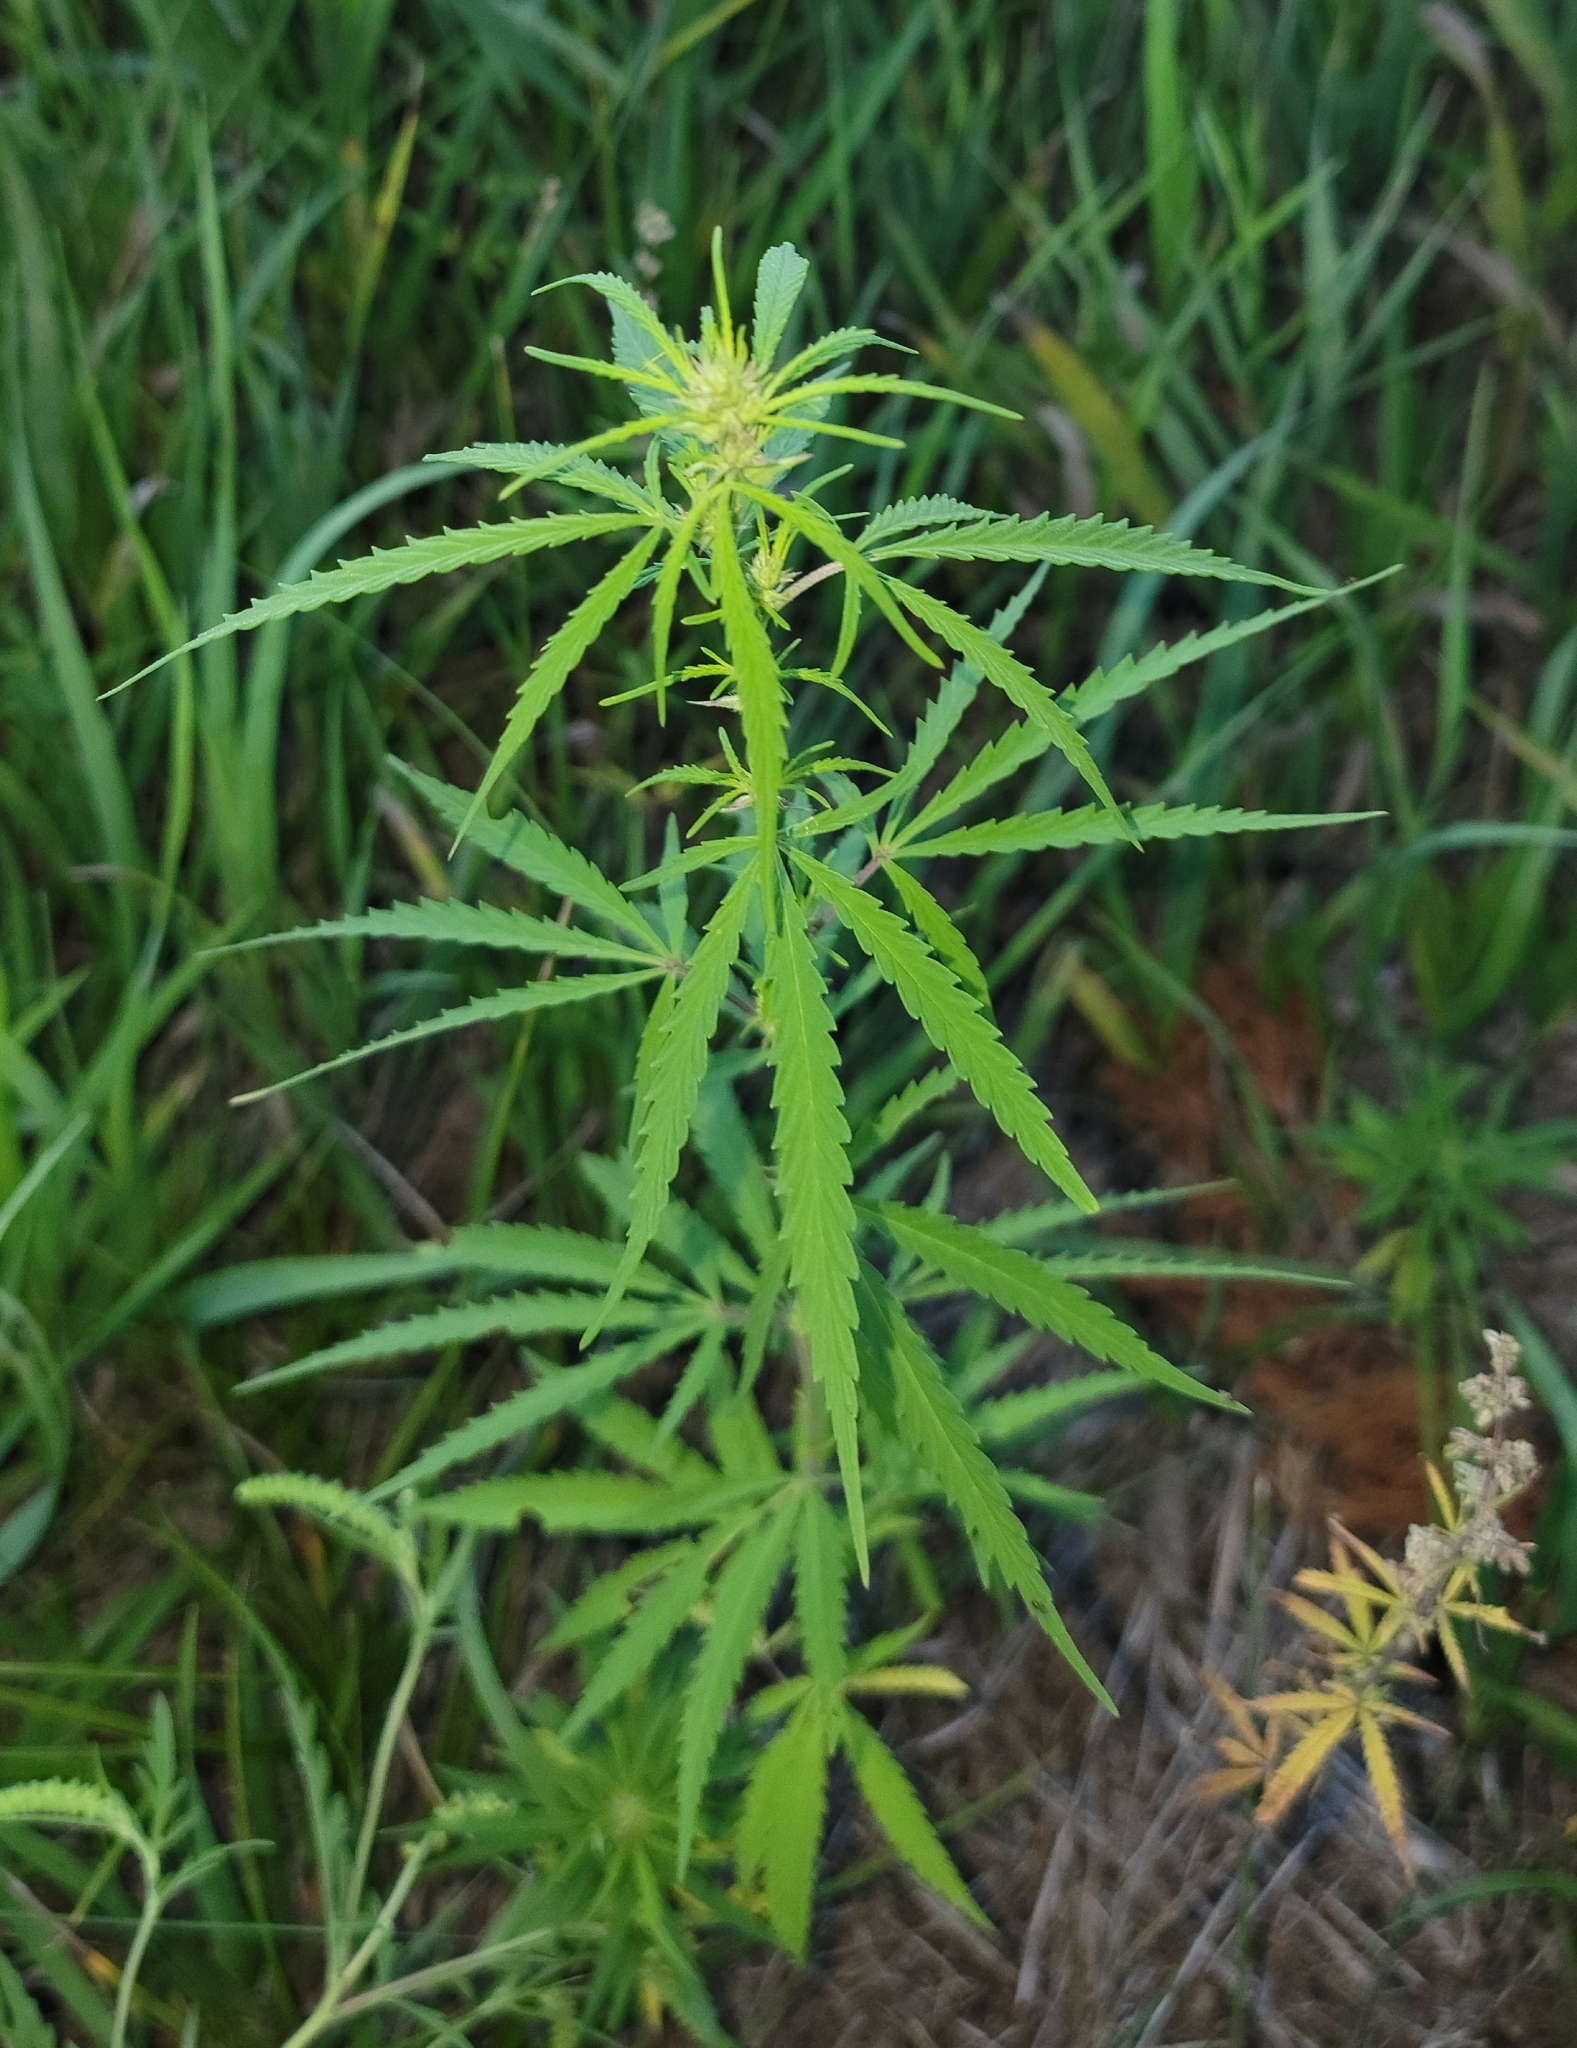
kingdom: Plantae
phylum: Tracheophyta
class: Magnoliopsida
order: Rosales
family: Cannabaceae
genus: Cannabis
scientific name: Cannabis sativa
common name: Hemp
